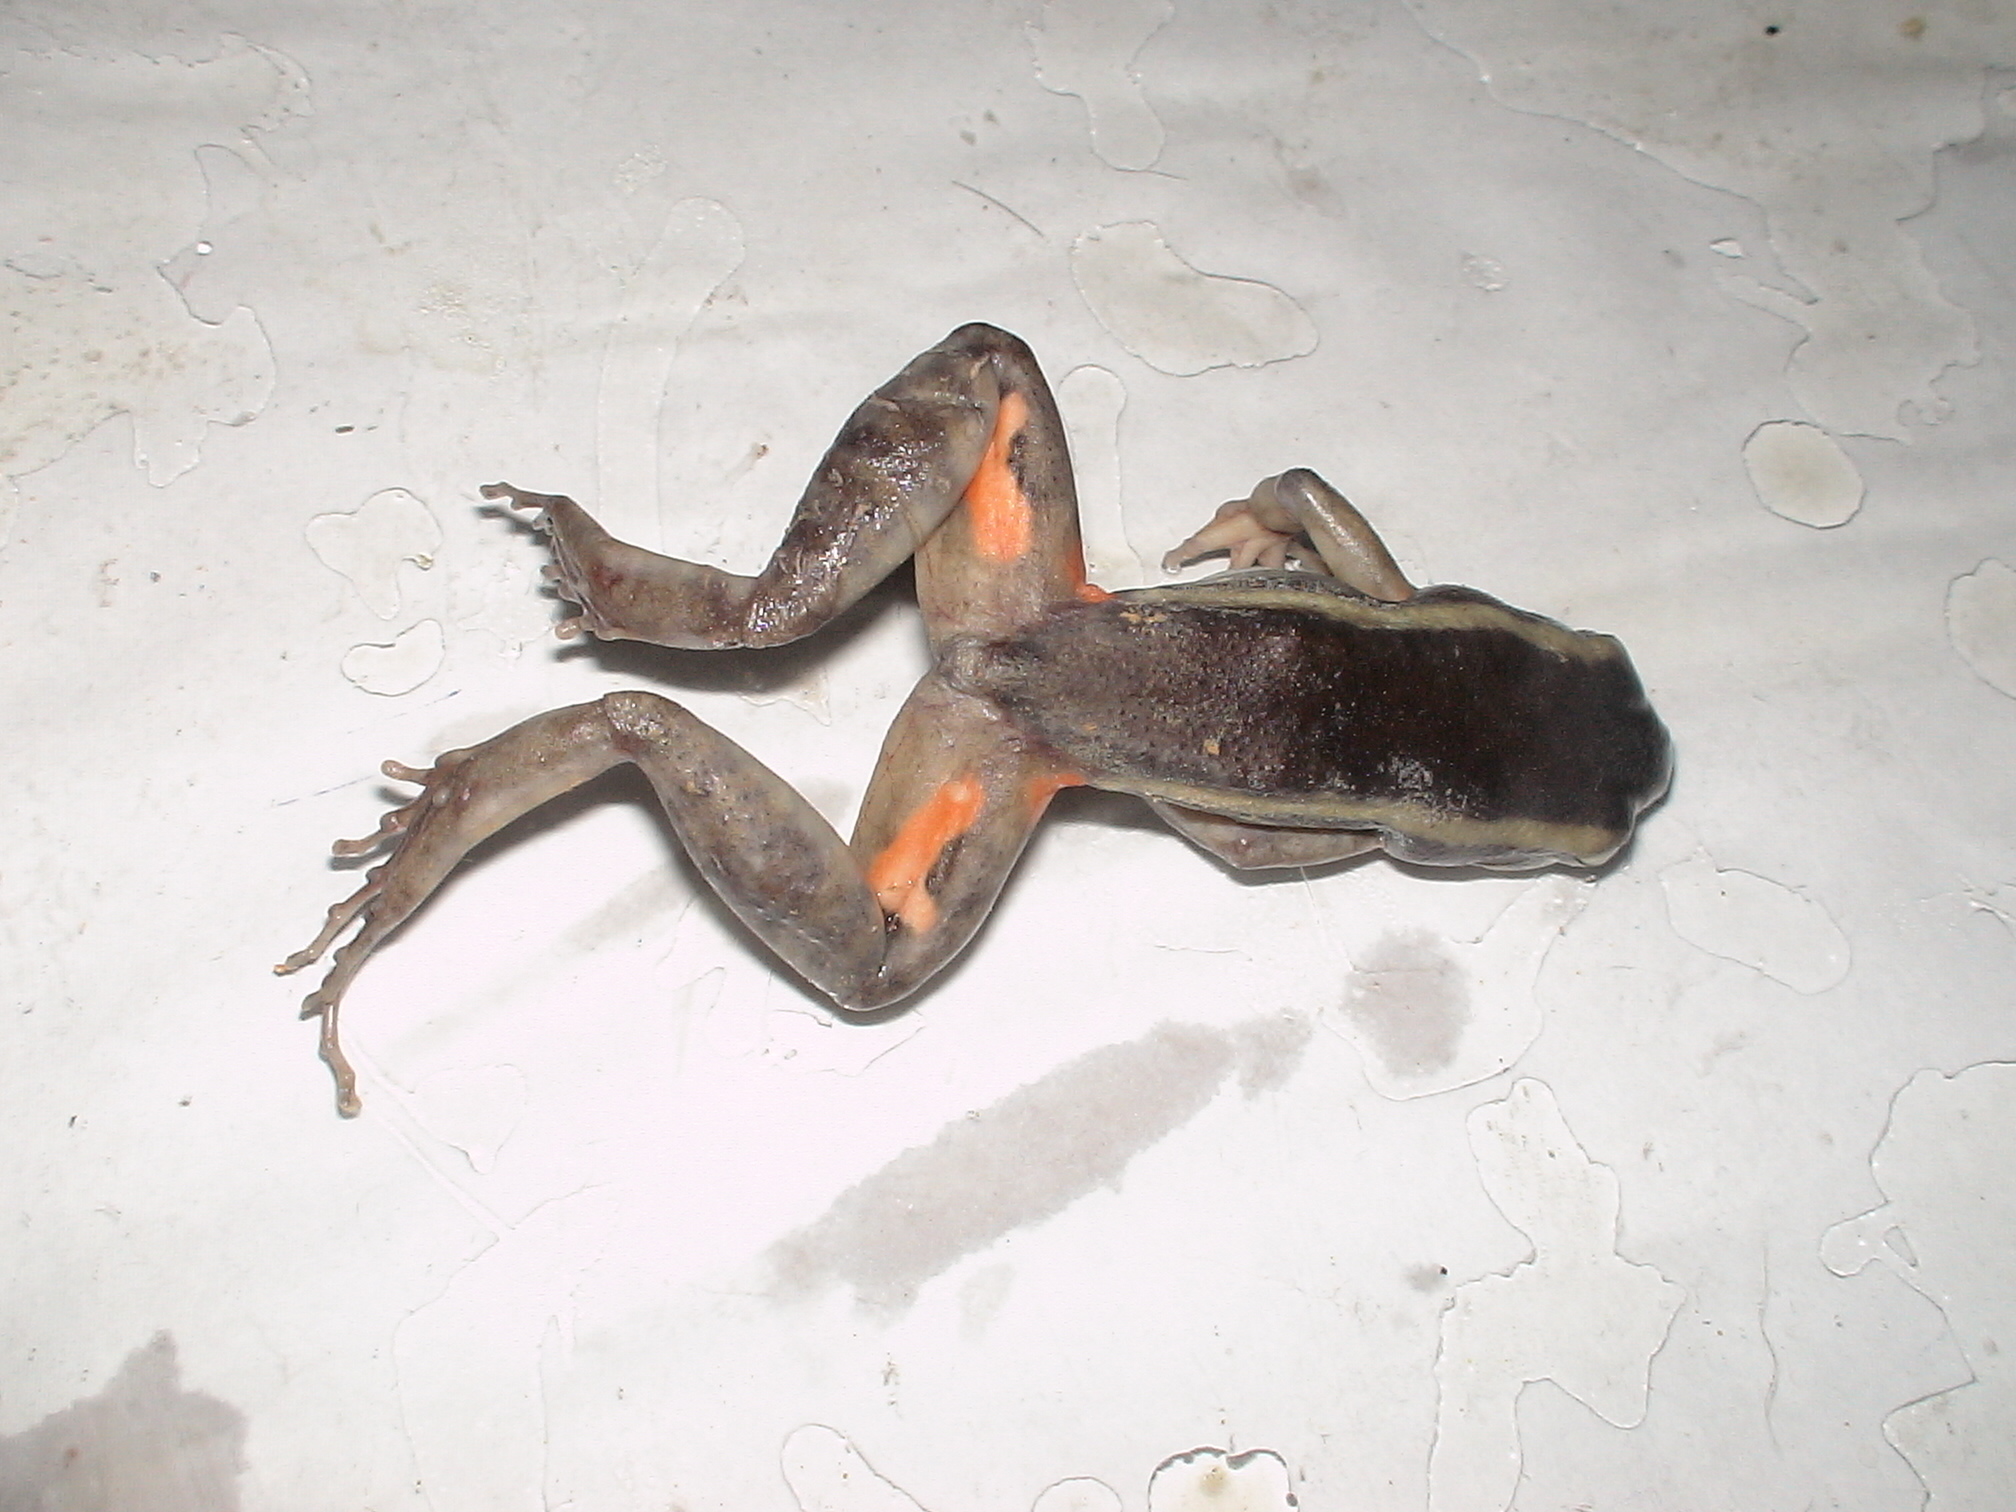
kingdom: Animalia
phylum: Chordata
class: Amphibia
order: Anura
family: Leptodactylidae
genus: Lithodytes
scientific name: Lithodytes lineatus
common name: Gold-striped frog
